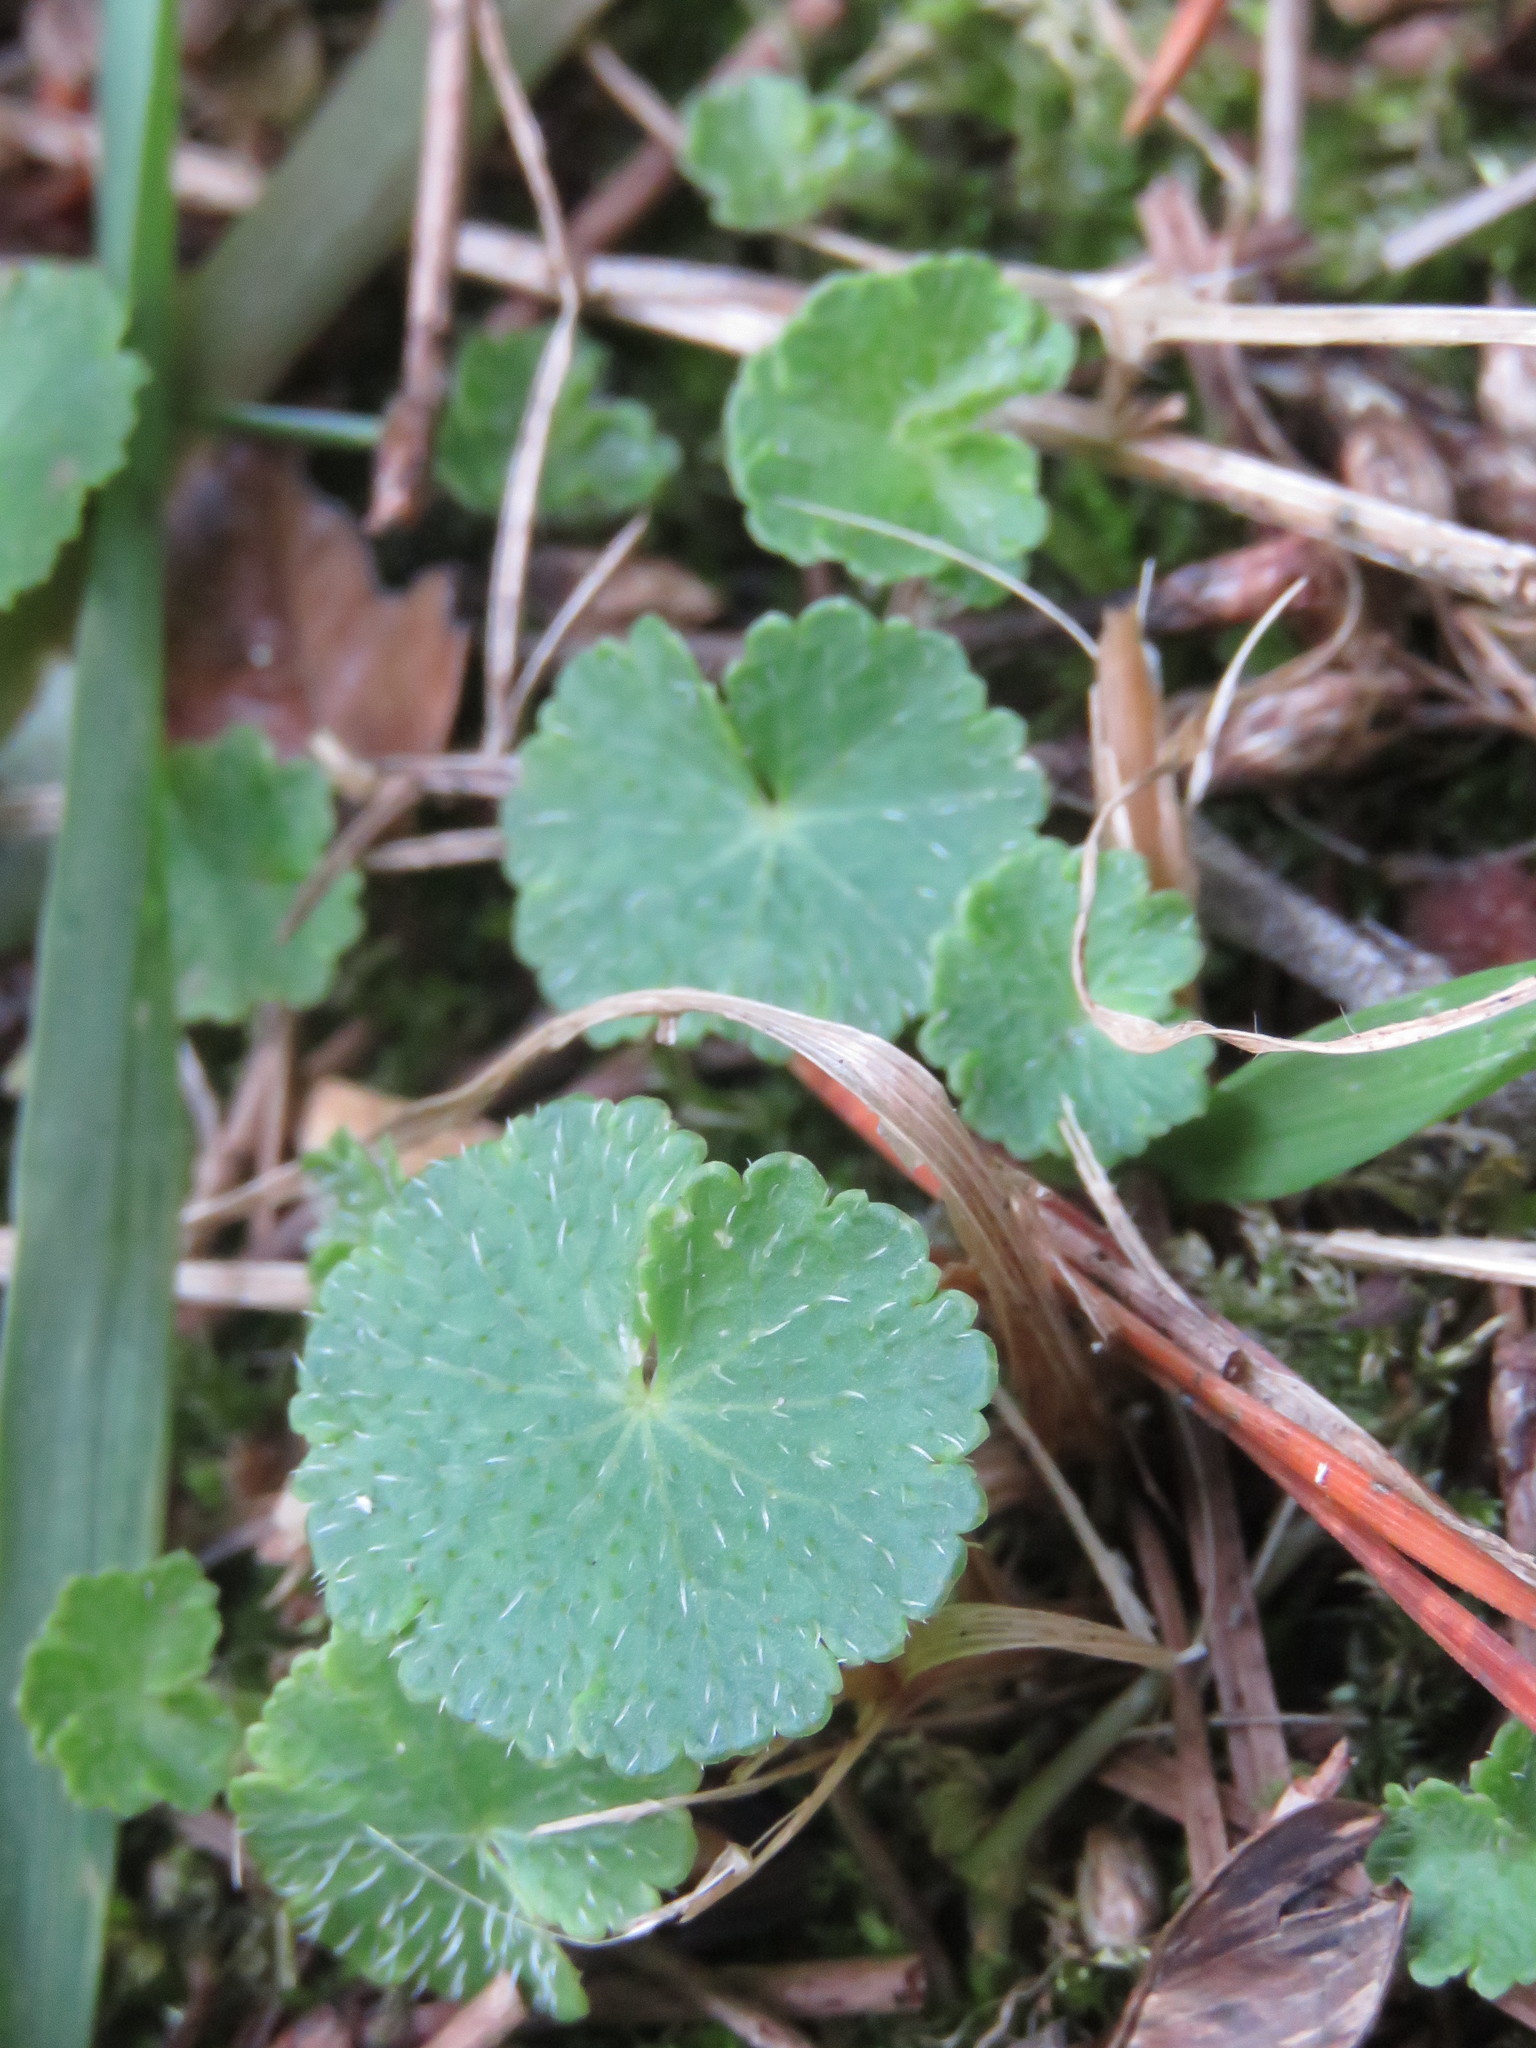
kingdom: Plantae
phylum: Tracheophyta
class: Magnoliopsida
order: Apiales
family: Araliaceae
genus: Hydrocotyle
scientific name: Hydrocotyle bonplandii
